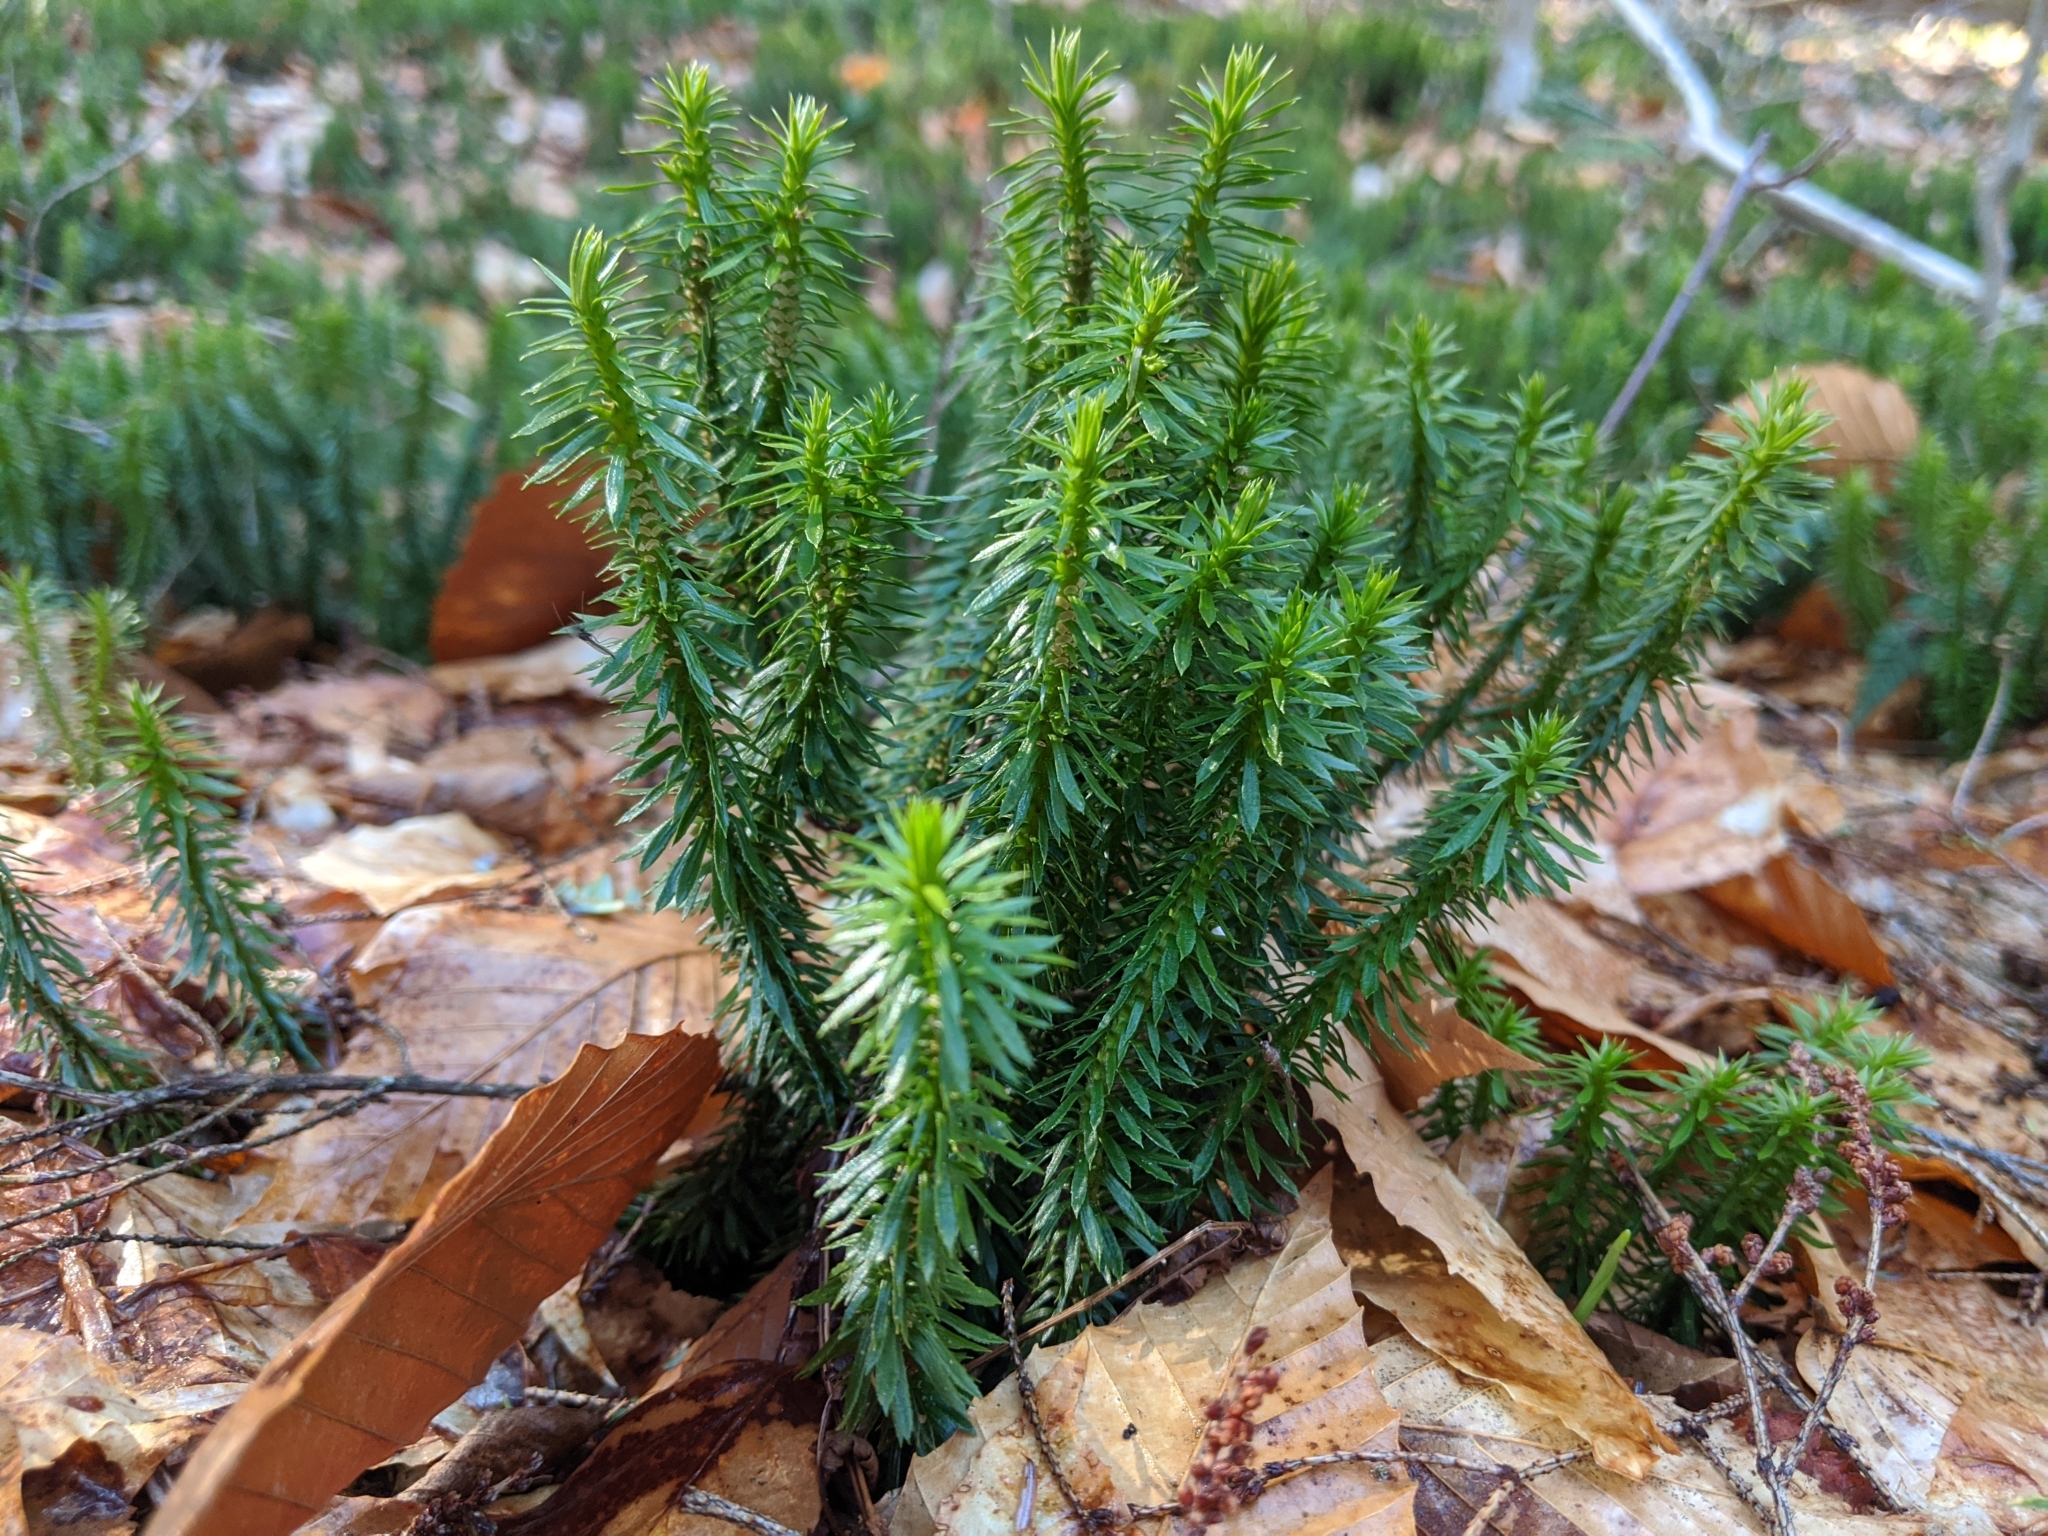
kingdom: Plantae
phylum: Tracheophyta
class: Lycopodiopsida
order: Lycopodiales
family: Lycopodiaceae
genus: Huperzia
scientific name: Huperzia lucidula
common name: Shining clubmoss
